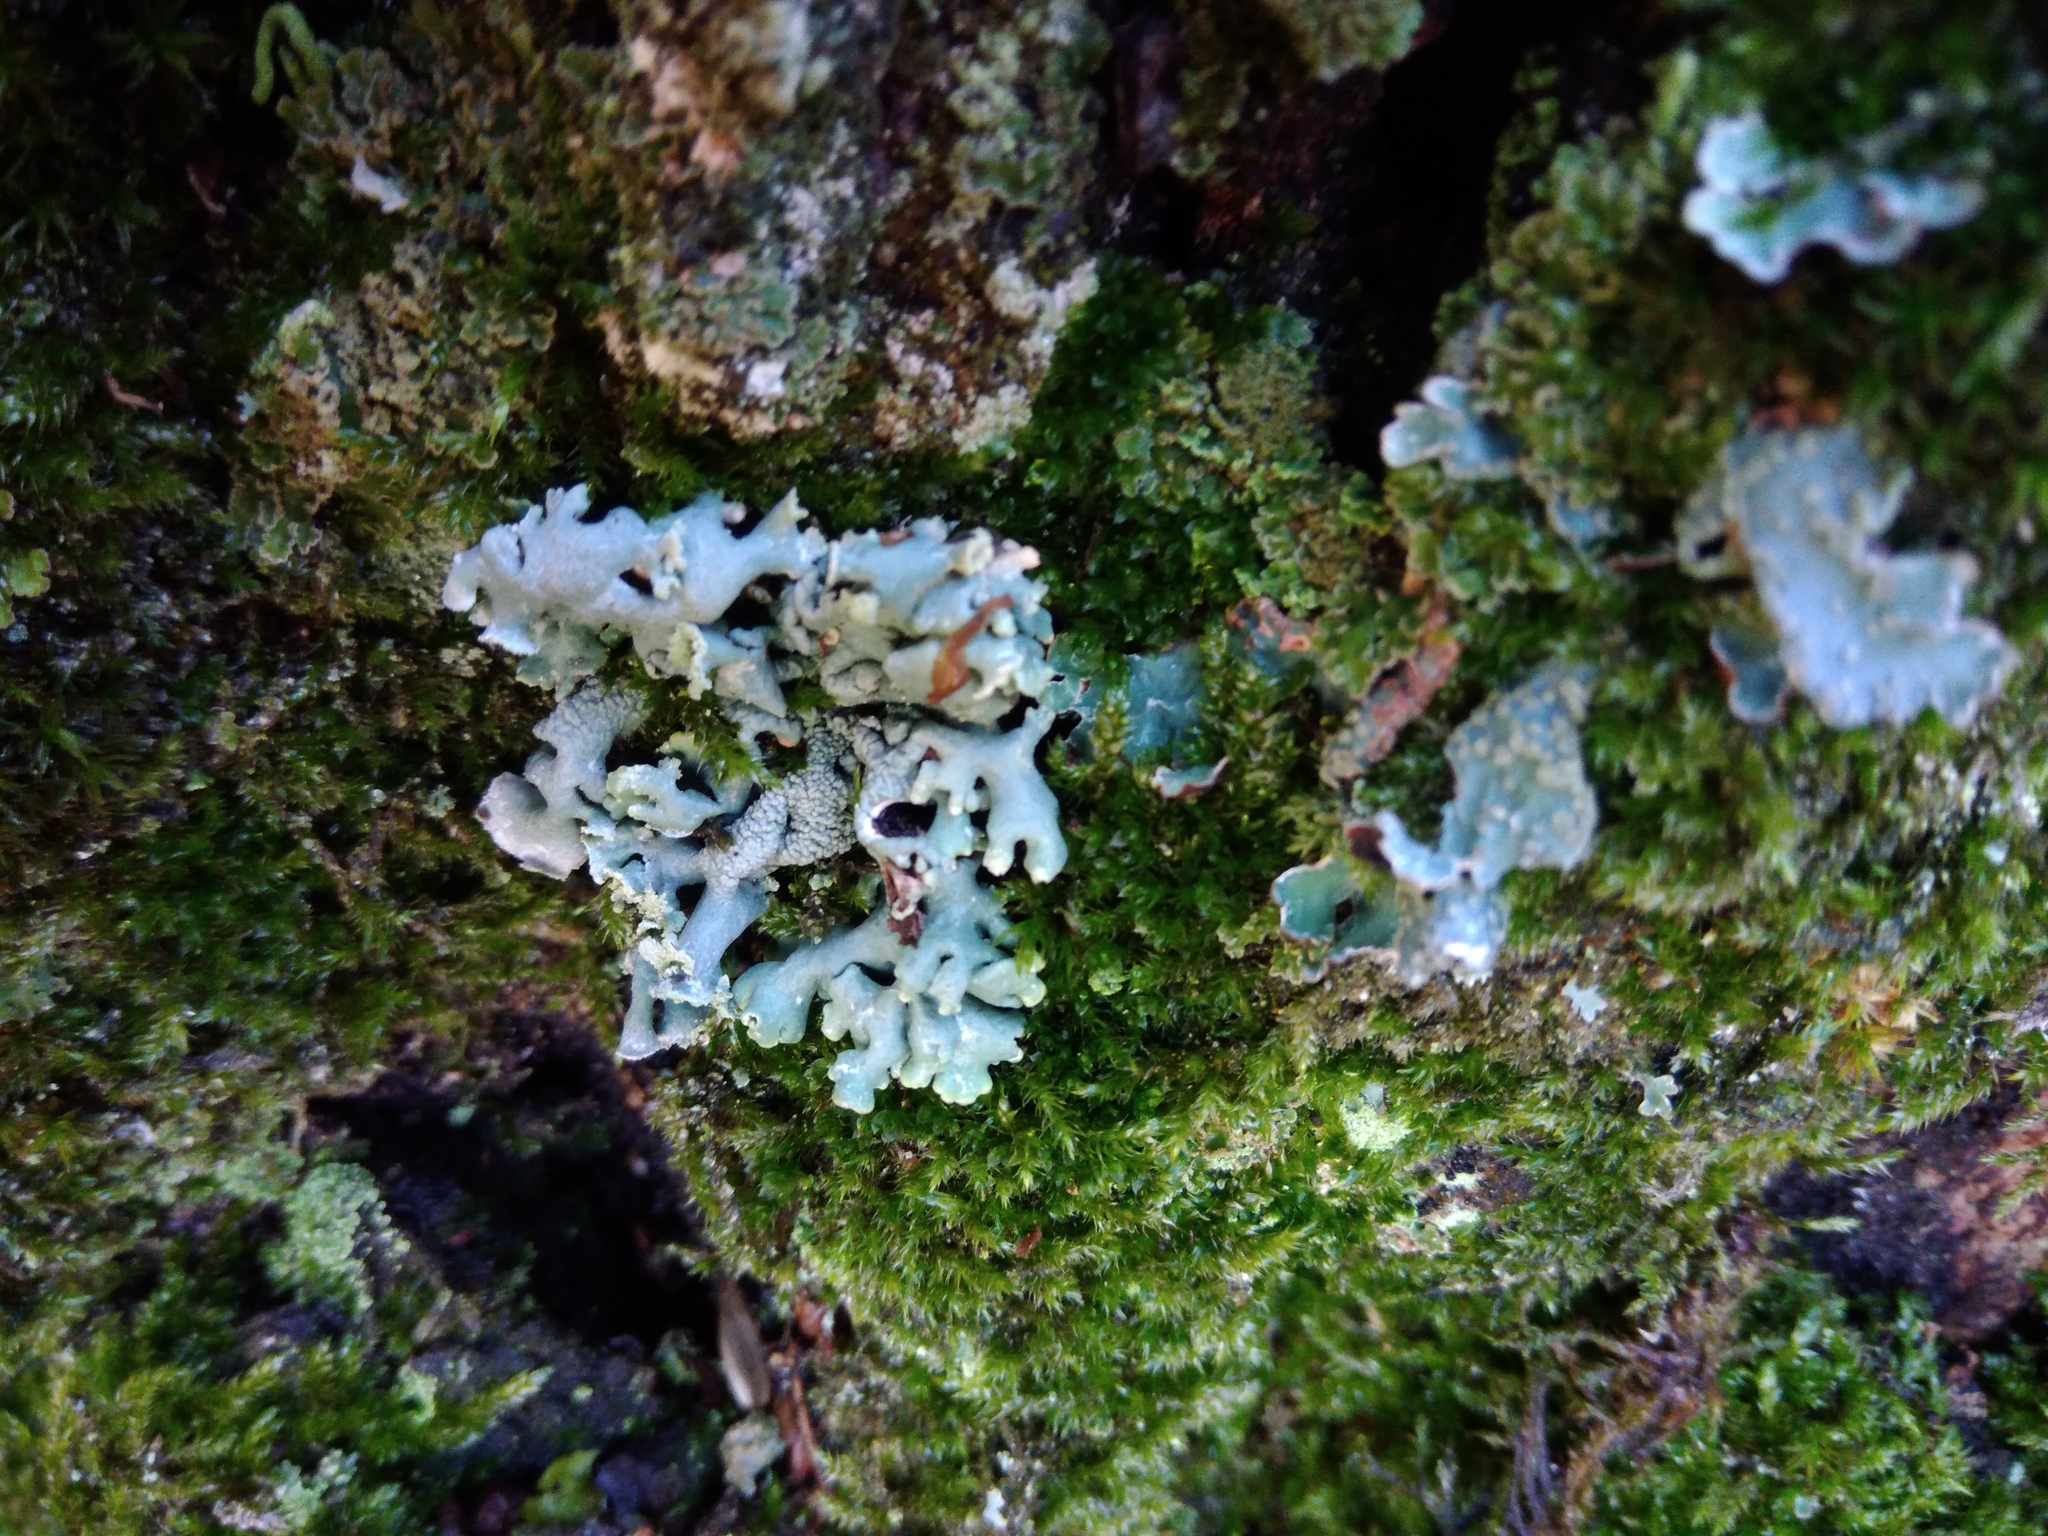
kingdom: Fungi
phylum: Ascomycota
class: Lecanoromycetes
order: Lecanorales
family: Parmeliaceae
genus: Hypogymnia
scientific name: Hypogymnia physodes
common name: Dark crottle
